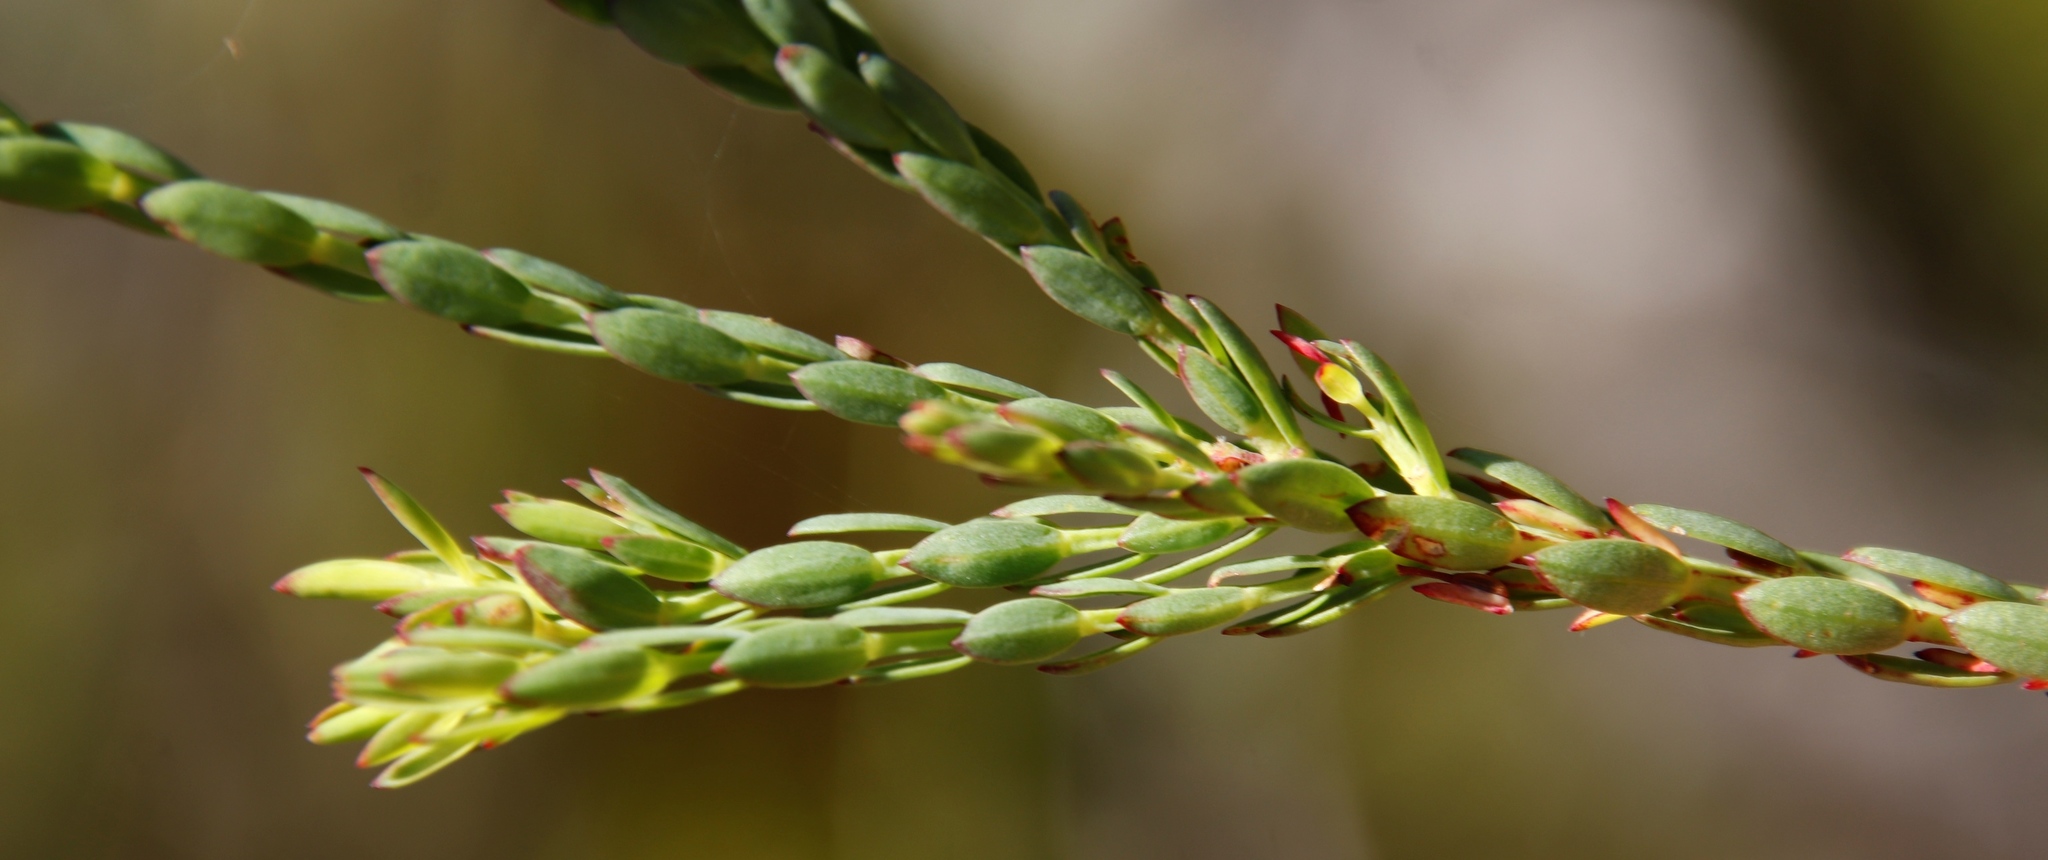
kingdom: Plantae
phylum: Tracheophyta
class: Magnoliopsida
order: Malvales
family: Thymelaeaceae
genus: Gnidia
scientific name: Gnidia oppositifolia
